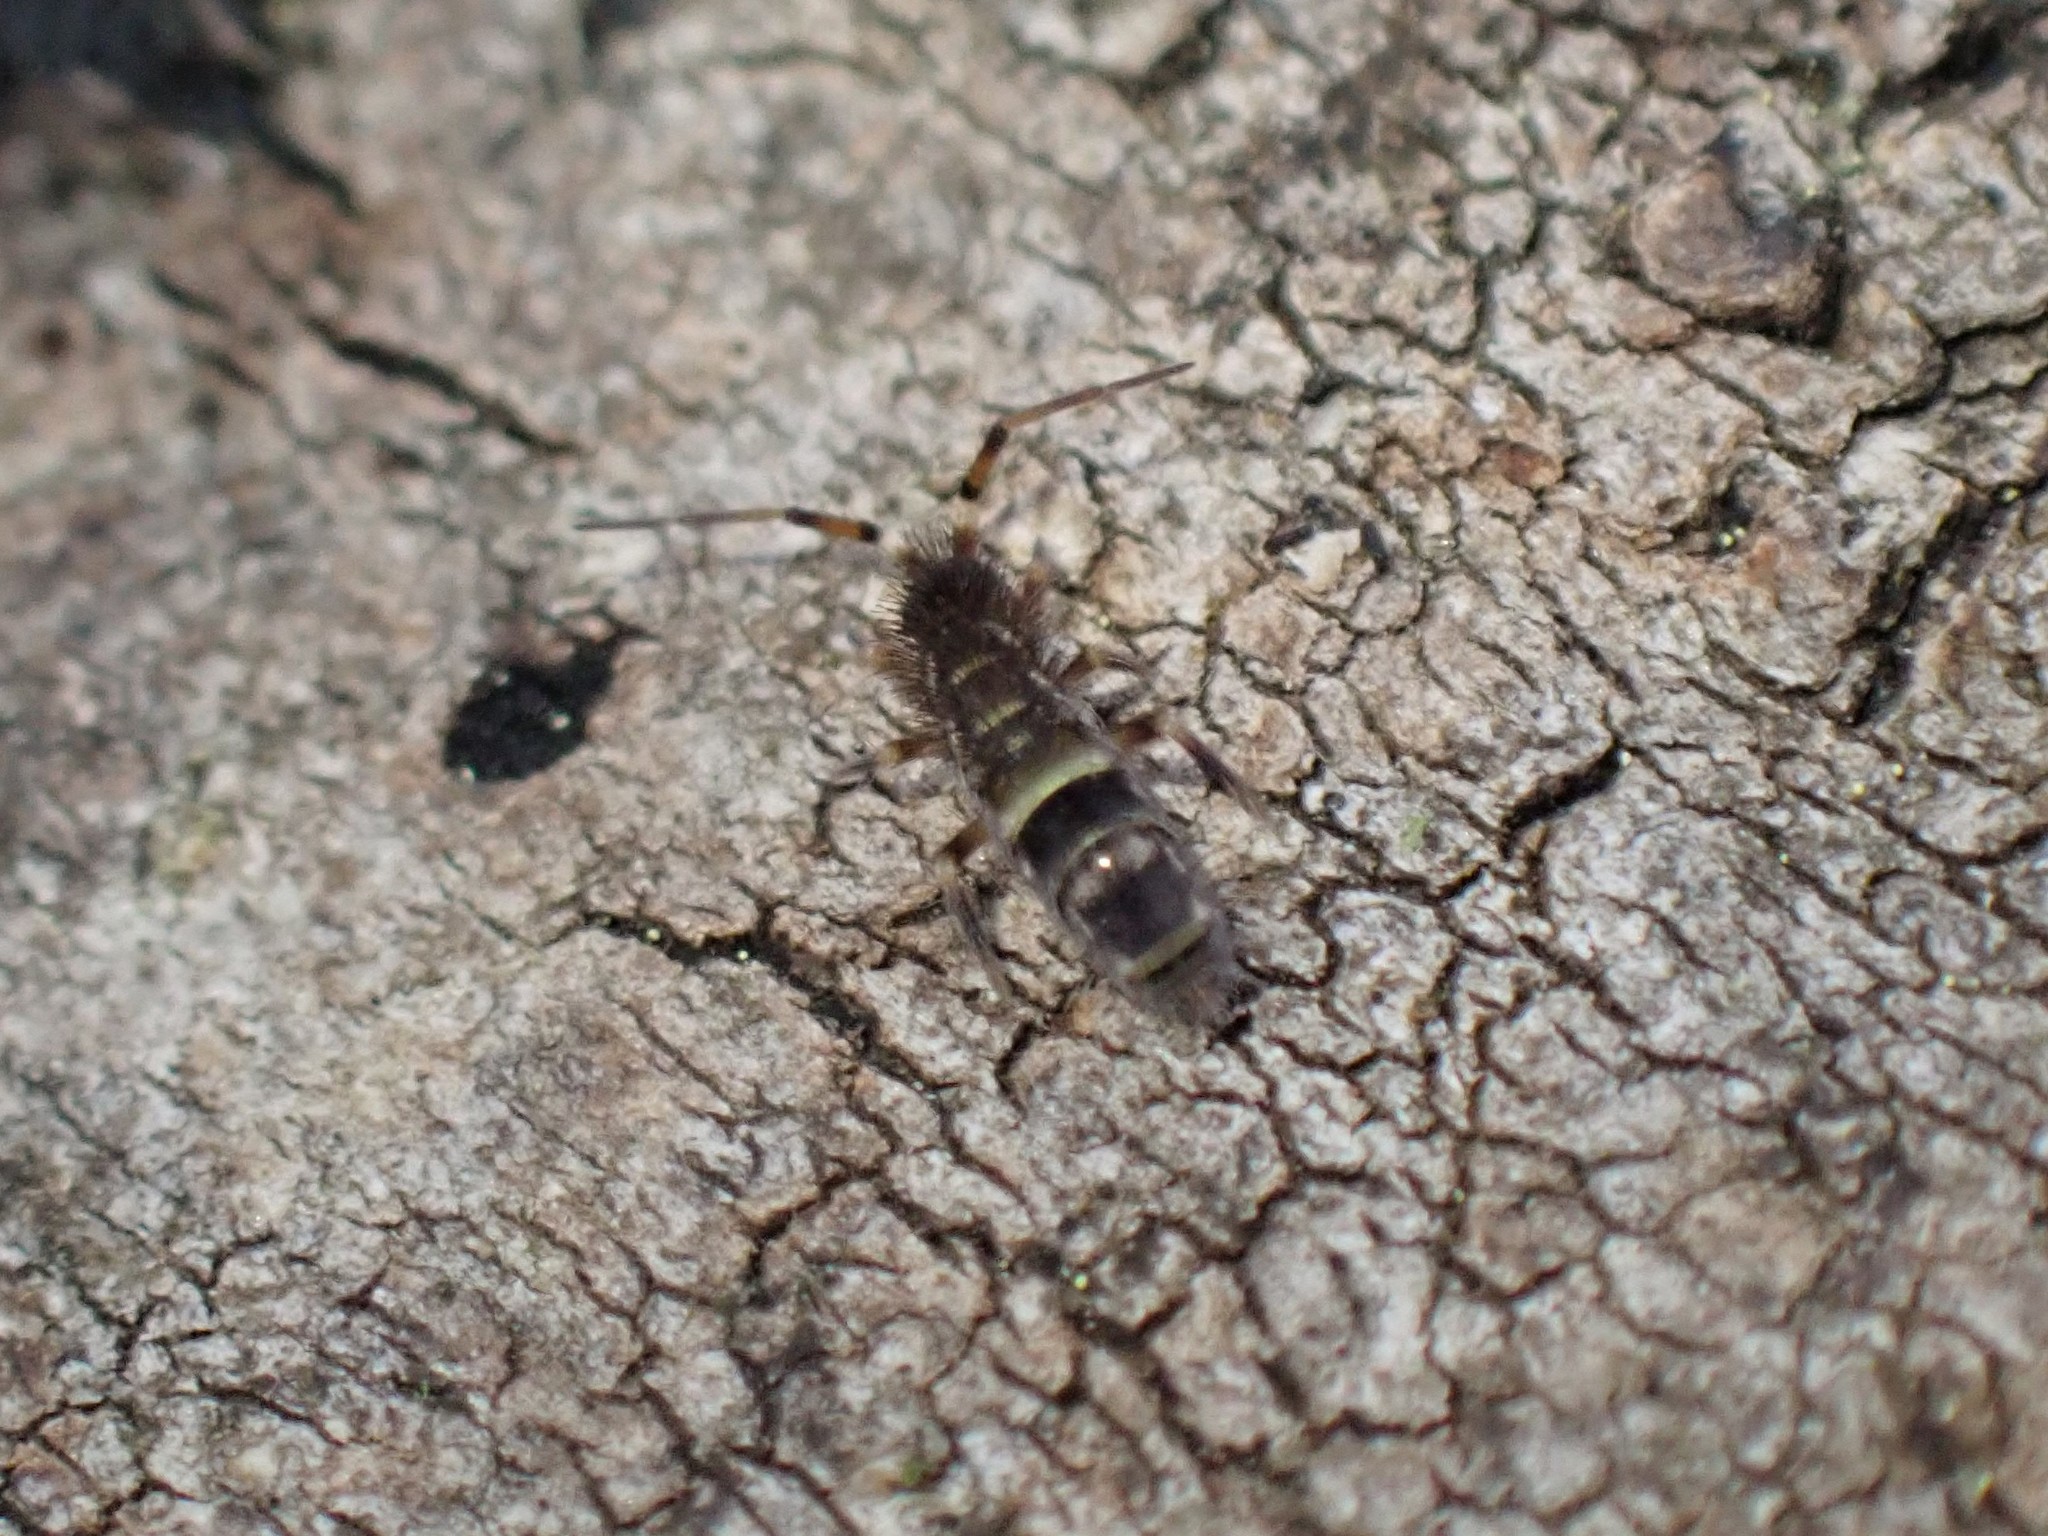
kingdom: Animalia
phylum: Arthropoda
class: Collembola
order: Entomobryomorpha
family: Orchesellidae
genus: Orchesella
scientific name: Orchesella cincta
